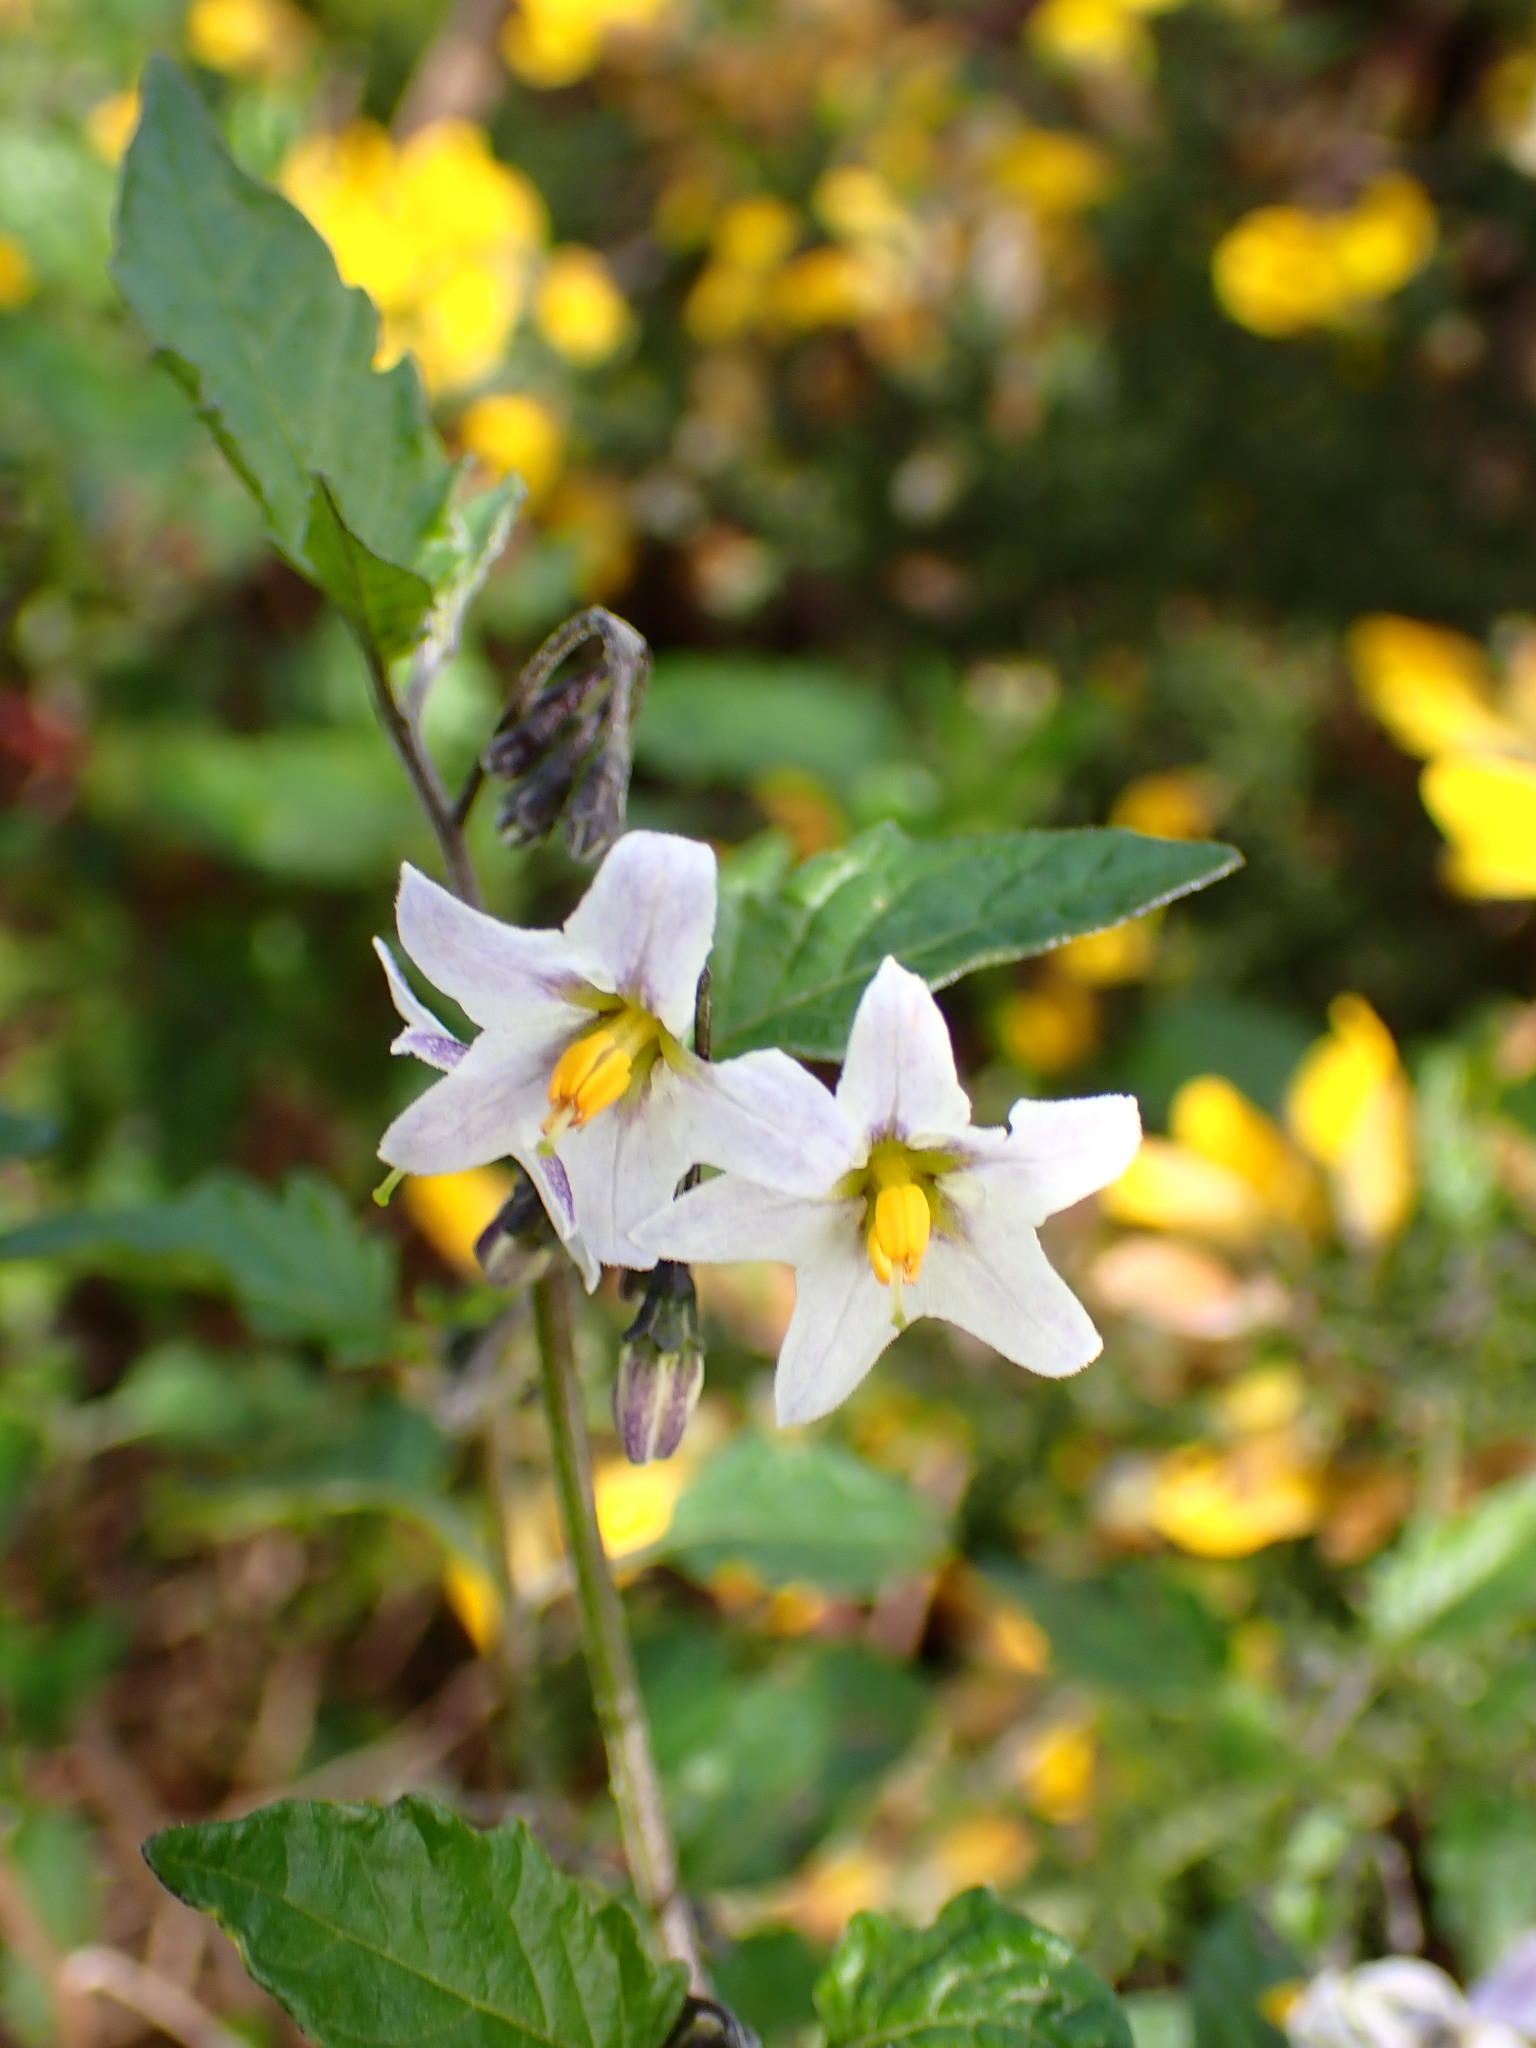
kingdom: Plantae
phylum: Tracheophyta
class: Magnoliopsida
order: Solanales
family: Solanaceae
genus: Solanum
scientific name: Solanum furcatum
